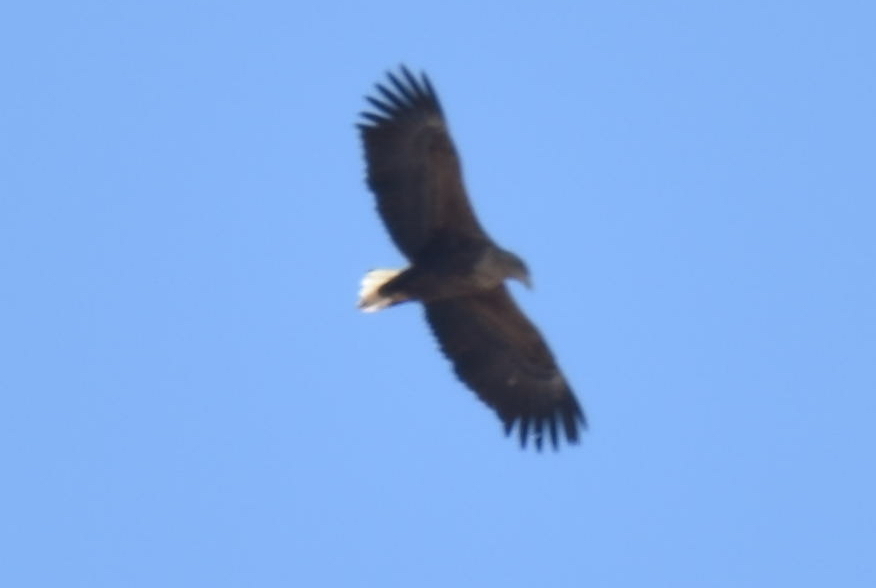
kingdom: Animalia
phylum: Chordata
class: Aves
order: Accipitriformes
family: Accipitridae
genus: Haliaeetus
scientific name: Haliaeetus albicilla
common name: White-tailed eagle
